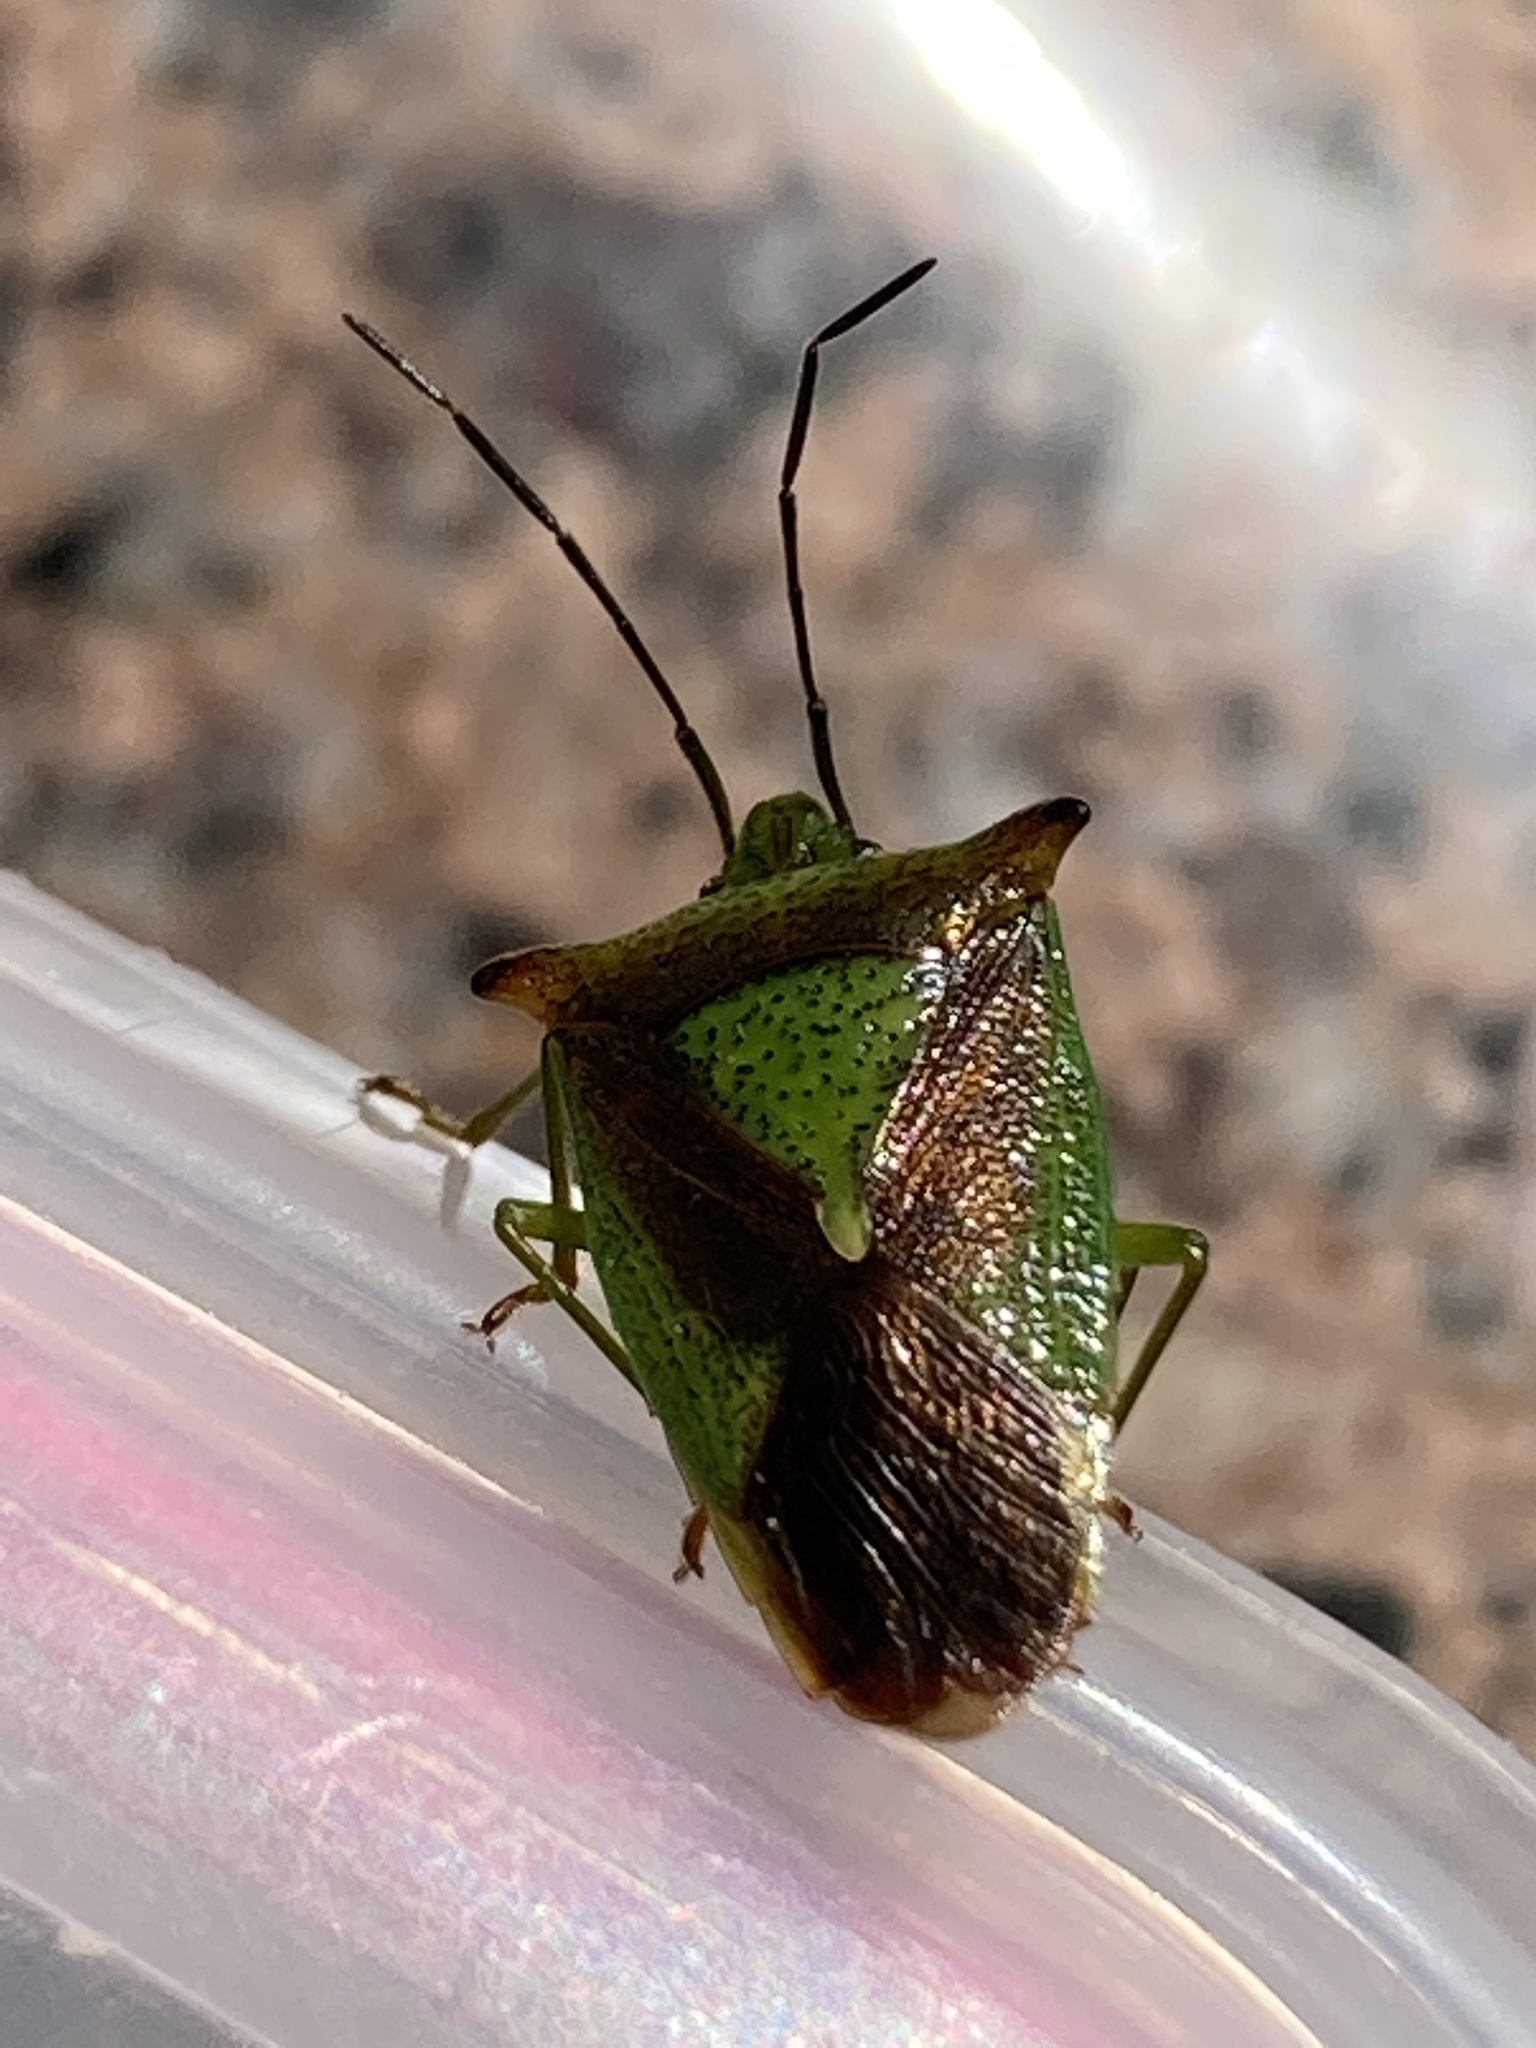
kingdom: Animalia
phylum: Arthropoda
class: Insecta
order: Hemiptera
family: Acanthosomatidae
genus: Acanthosoma
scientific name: Acanthosoma haemorrhoidale
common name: Hawthorn shieldbug
